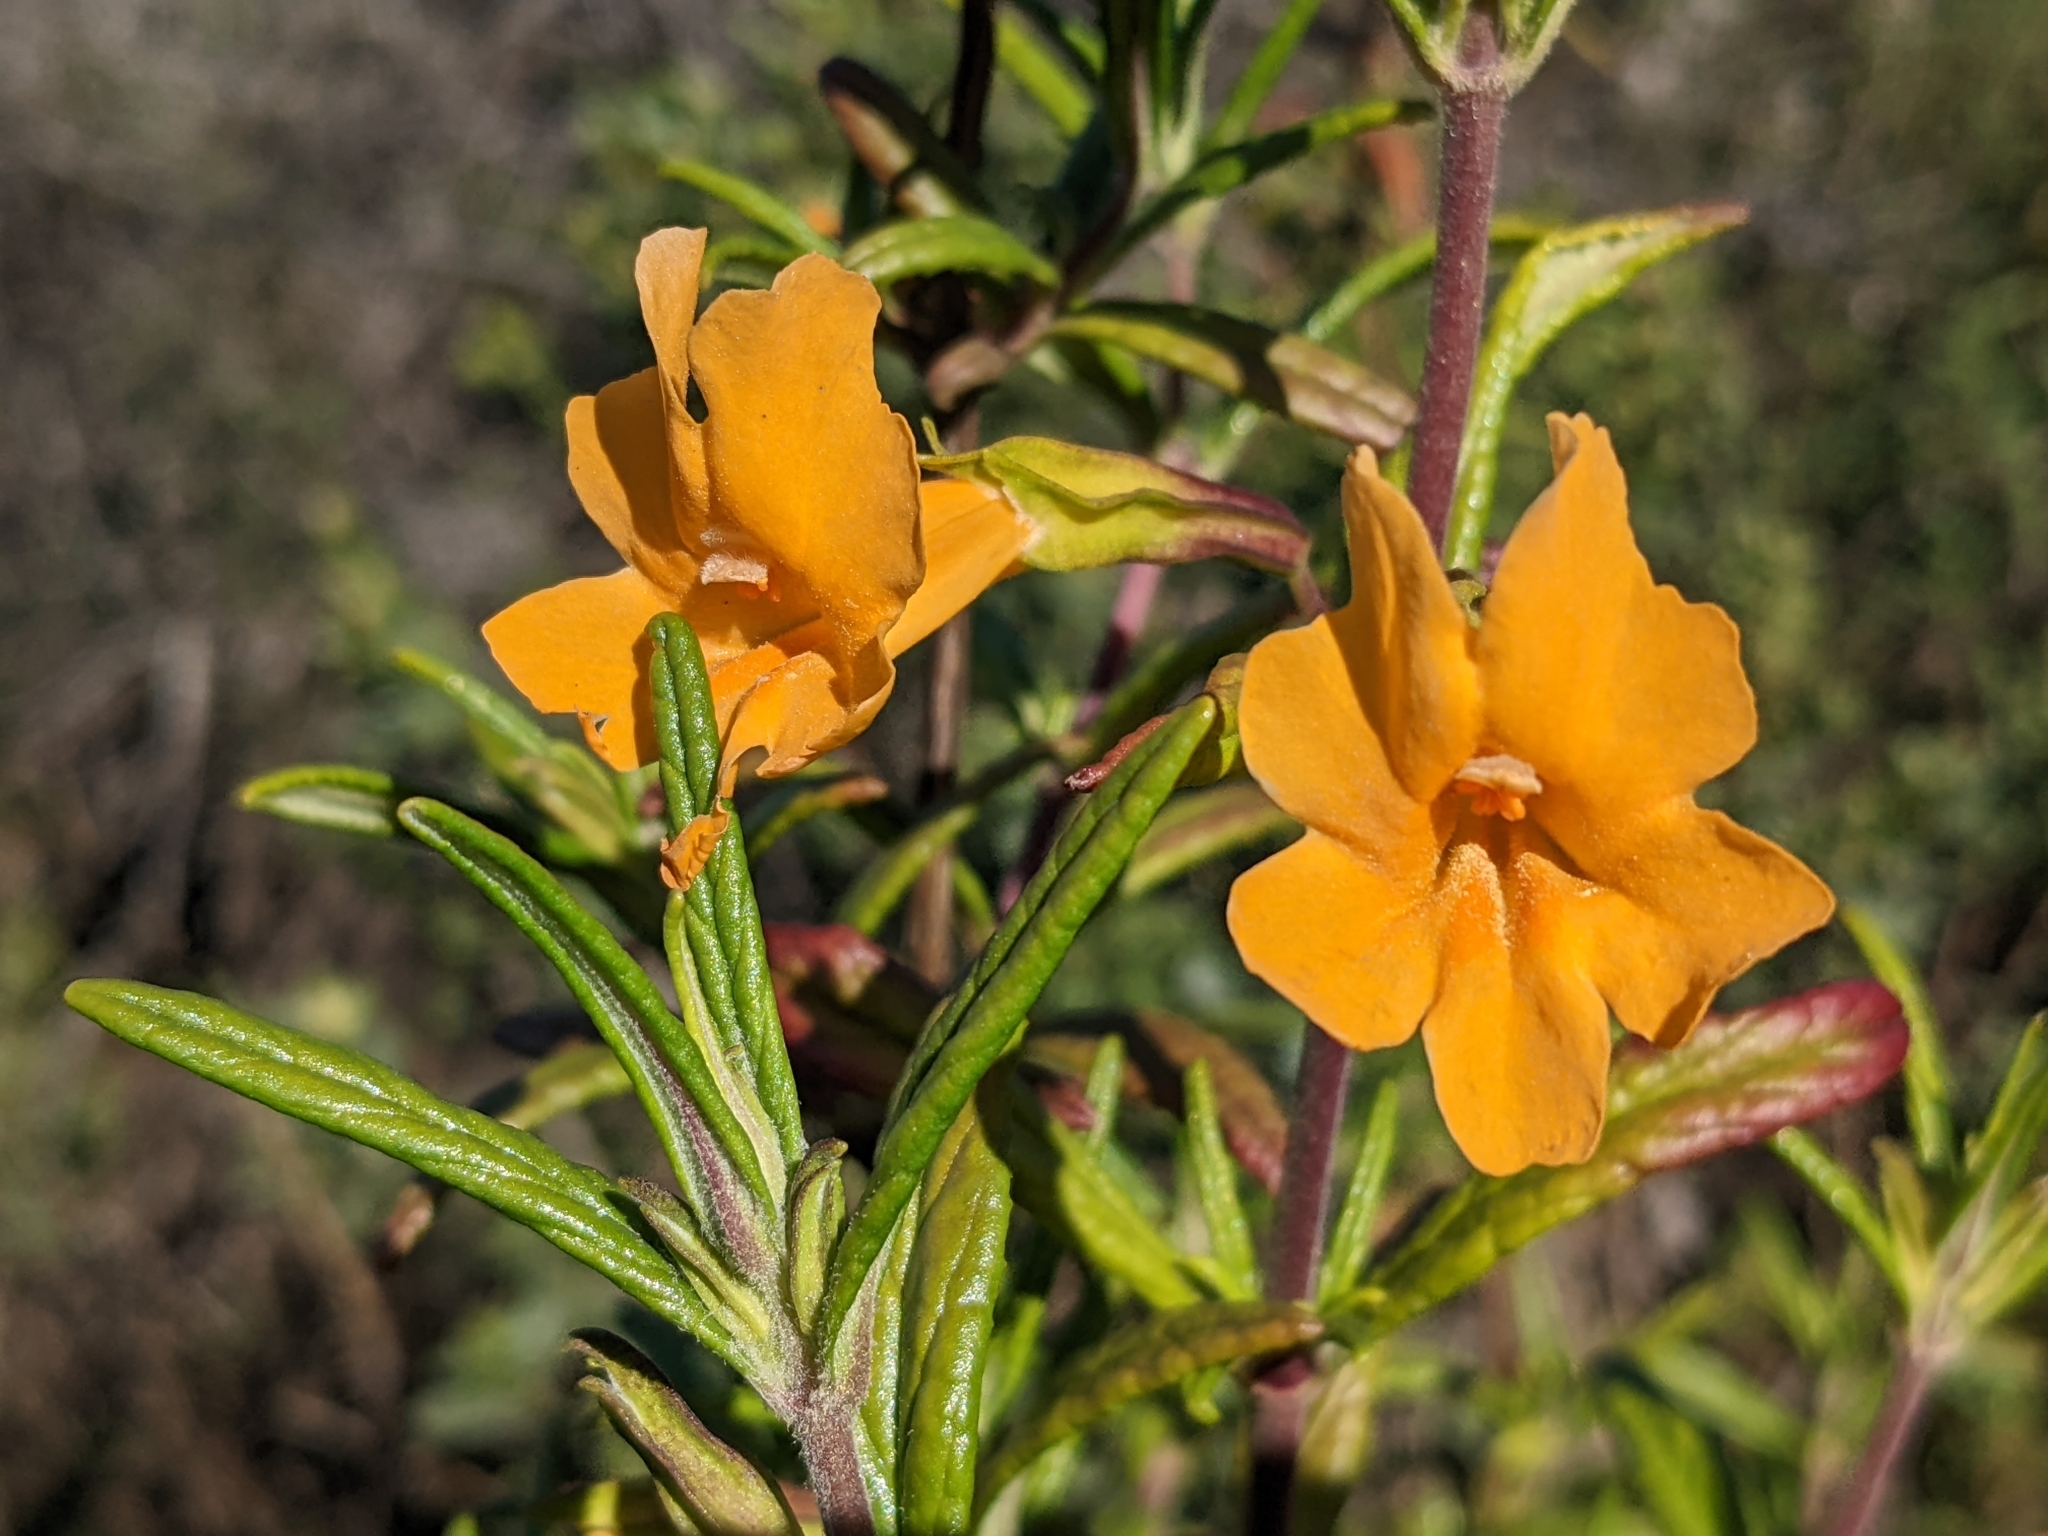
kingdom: Plantae
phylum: Tracheophyta
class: Magnoliopsida
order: Lamiales
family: Phrymaceae
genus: Diplacus
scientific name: Diplacus aurantiacus
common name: Bush monkey-flower
